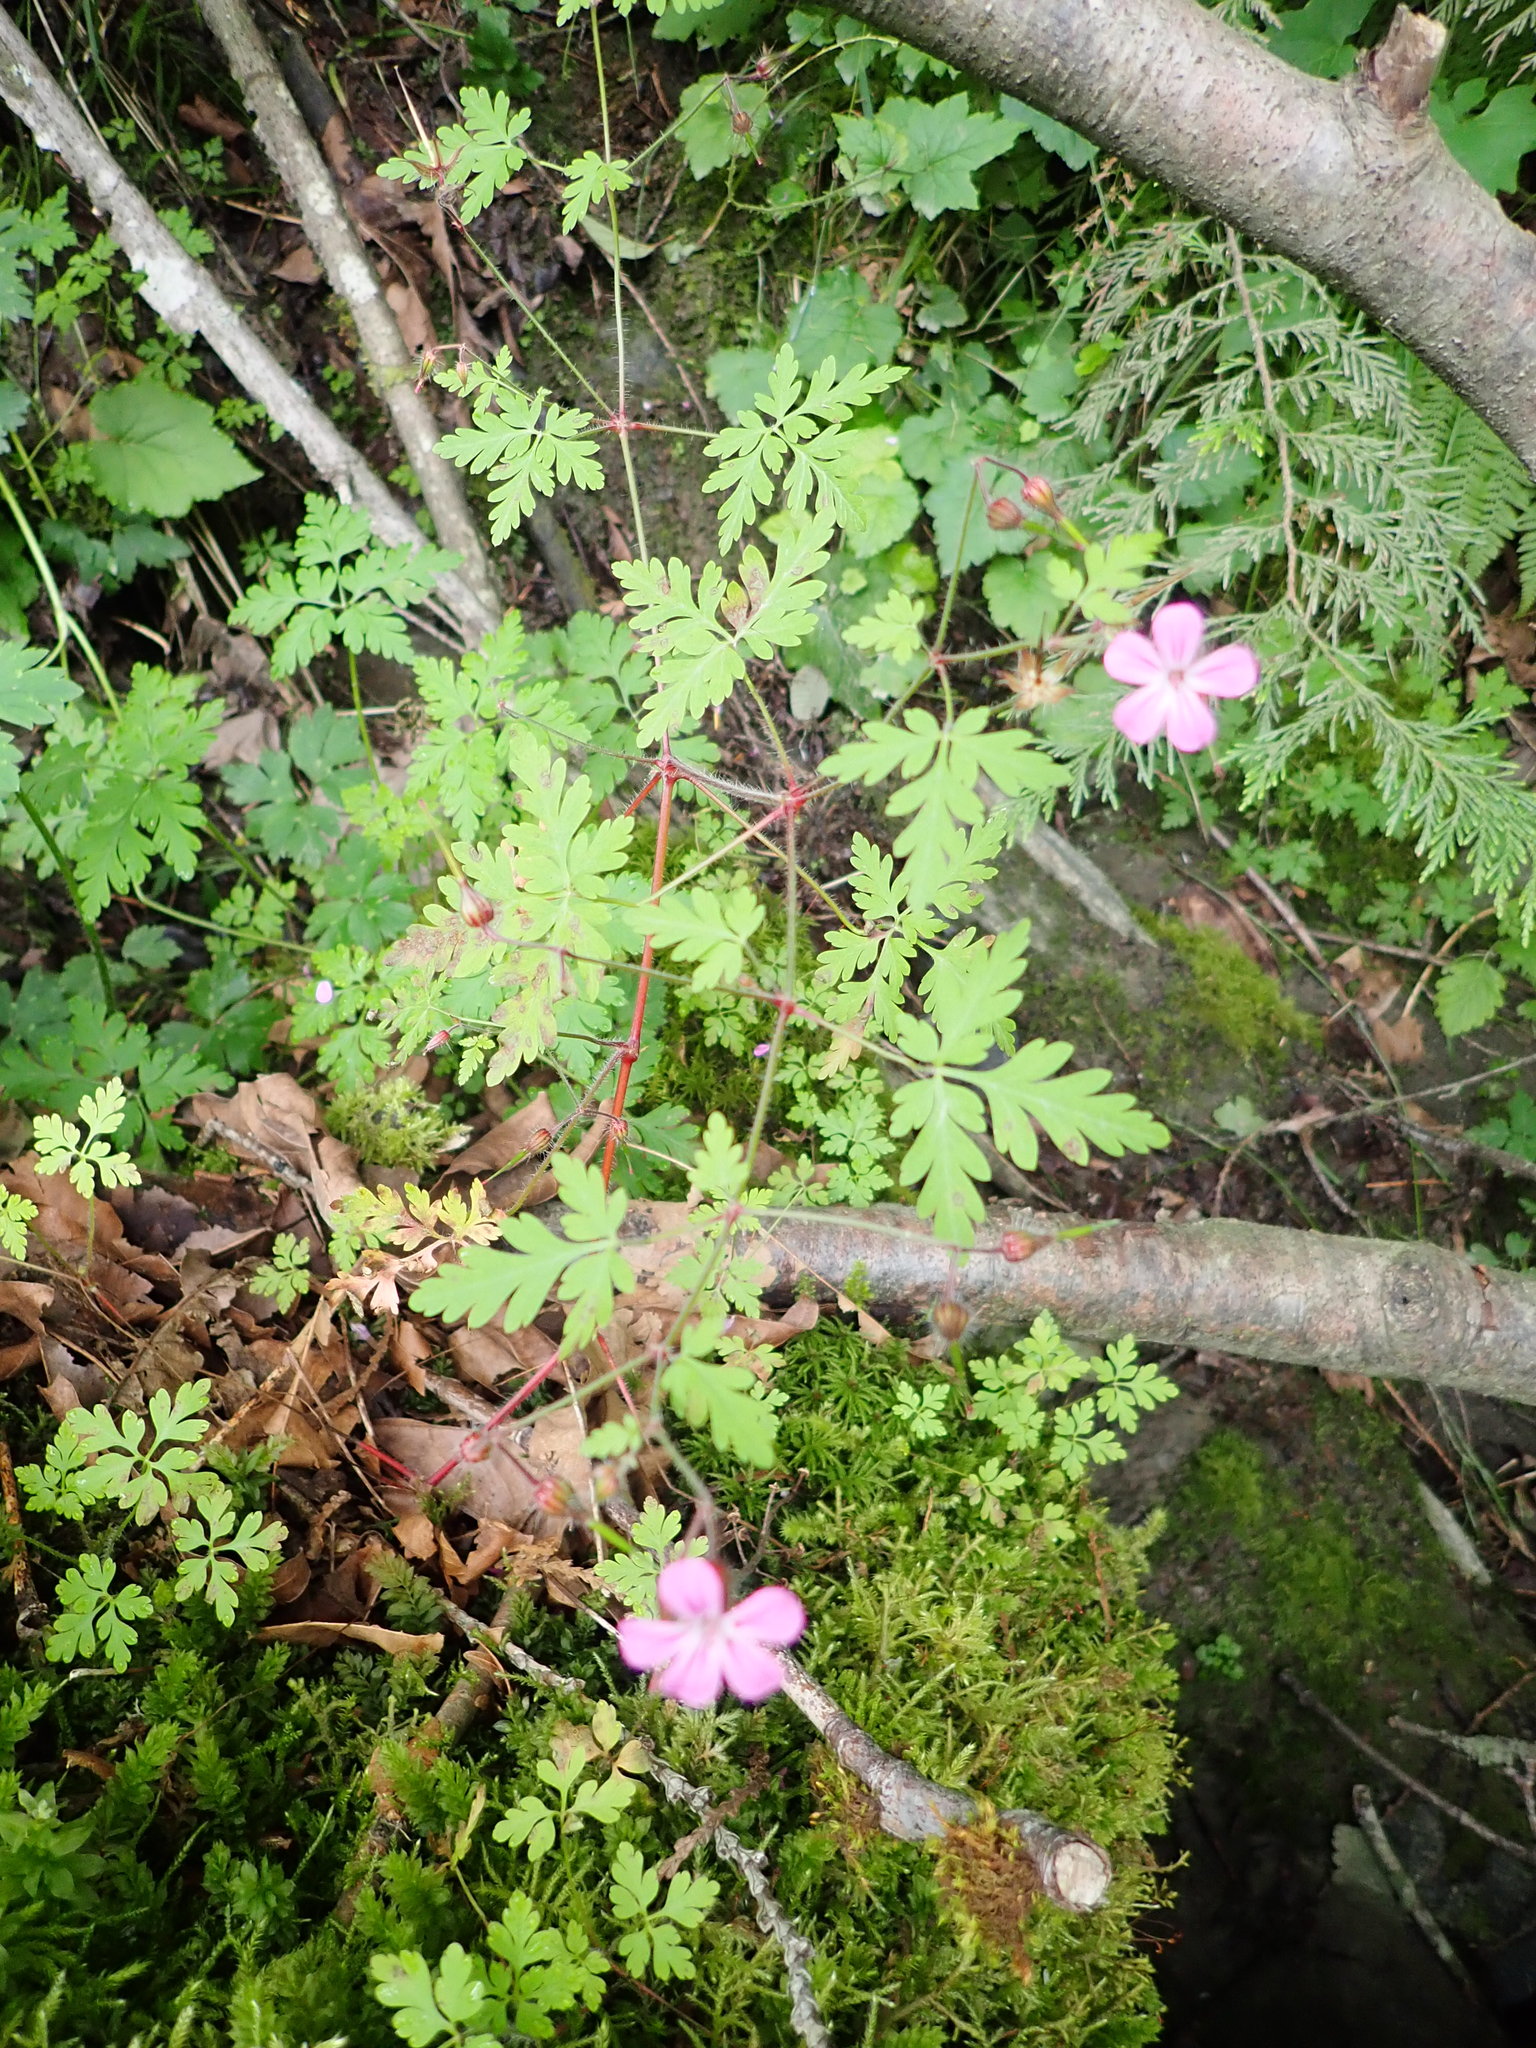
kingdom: Plantae
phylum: Tracheophyta
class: Magnoliopsida
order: Geraniales
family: Geraniaceae
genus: Geranium
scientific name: Geranium robertianum
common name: Herb-robert
